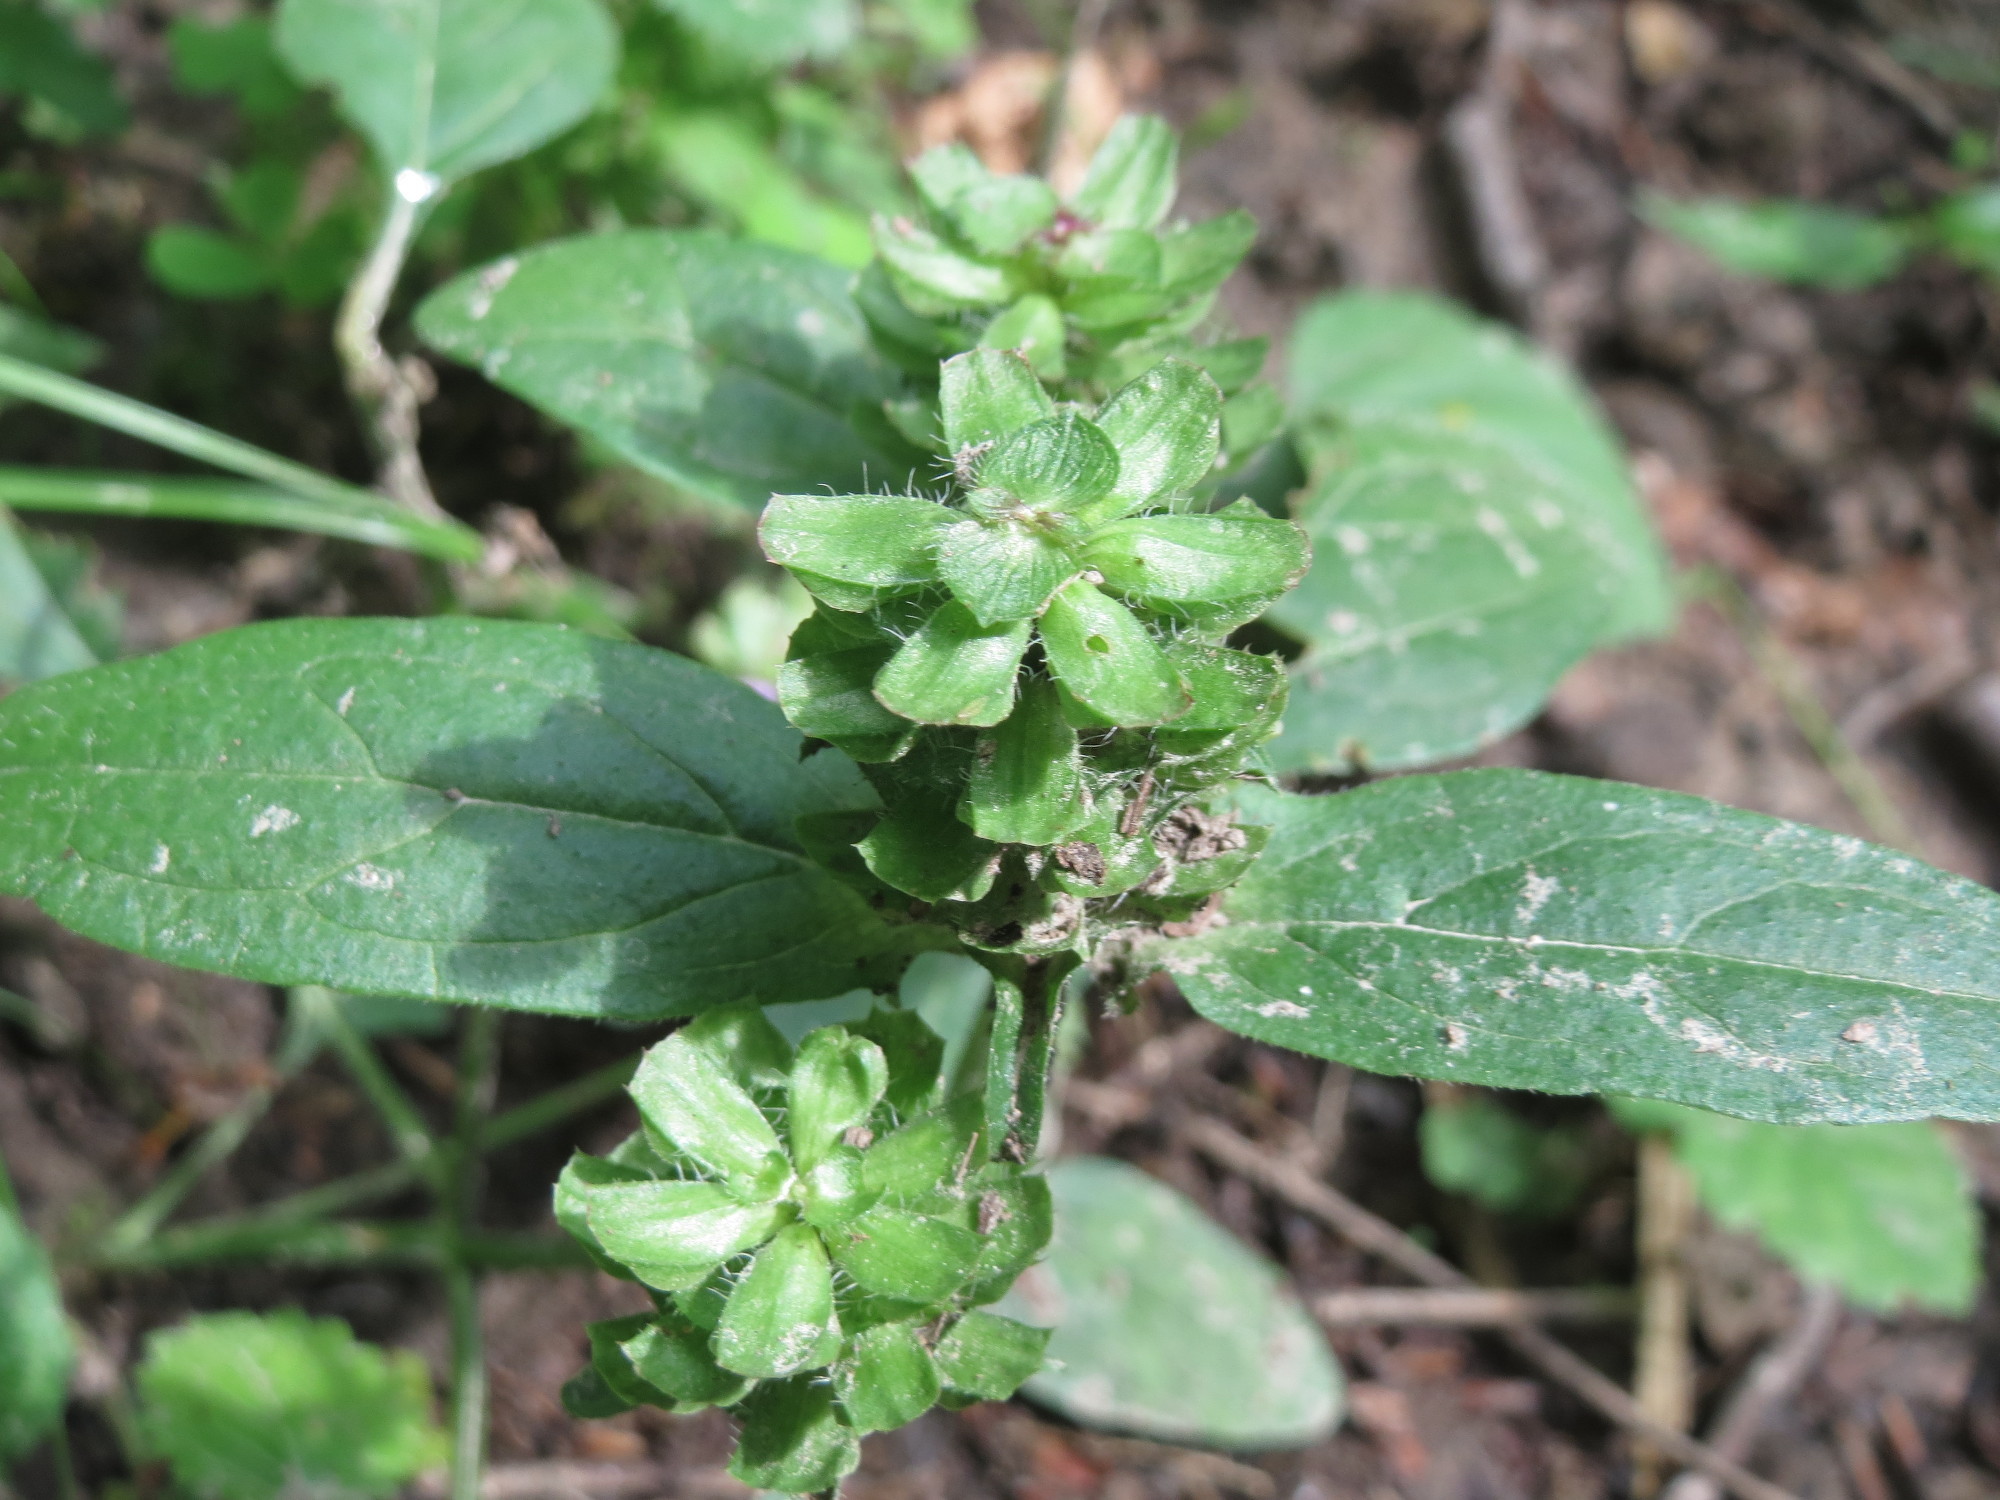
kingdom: Plantae
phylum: Tracheophyta
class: Magnoliopsida
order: Lamiales
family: Lamiaceae
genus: Prunella
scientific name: Prunella vulgaris
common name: Heal-all
